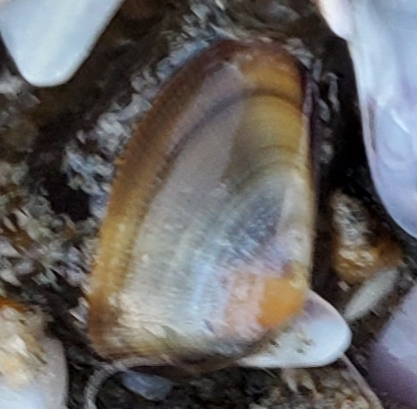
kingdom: Animalia
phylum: Mollusca
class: Bivalvia
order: Cardiida
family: Donacidae
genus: Donax
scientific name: Donax gouldii
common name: Gould beanclam
